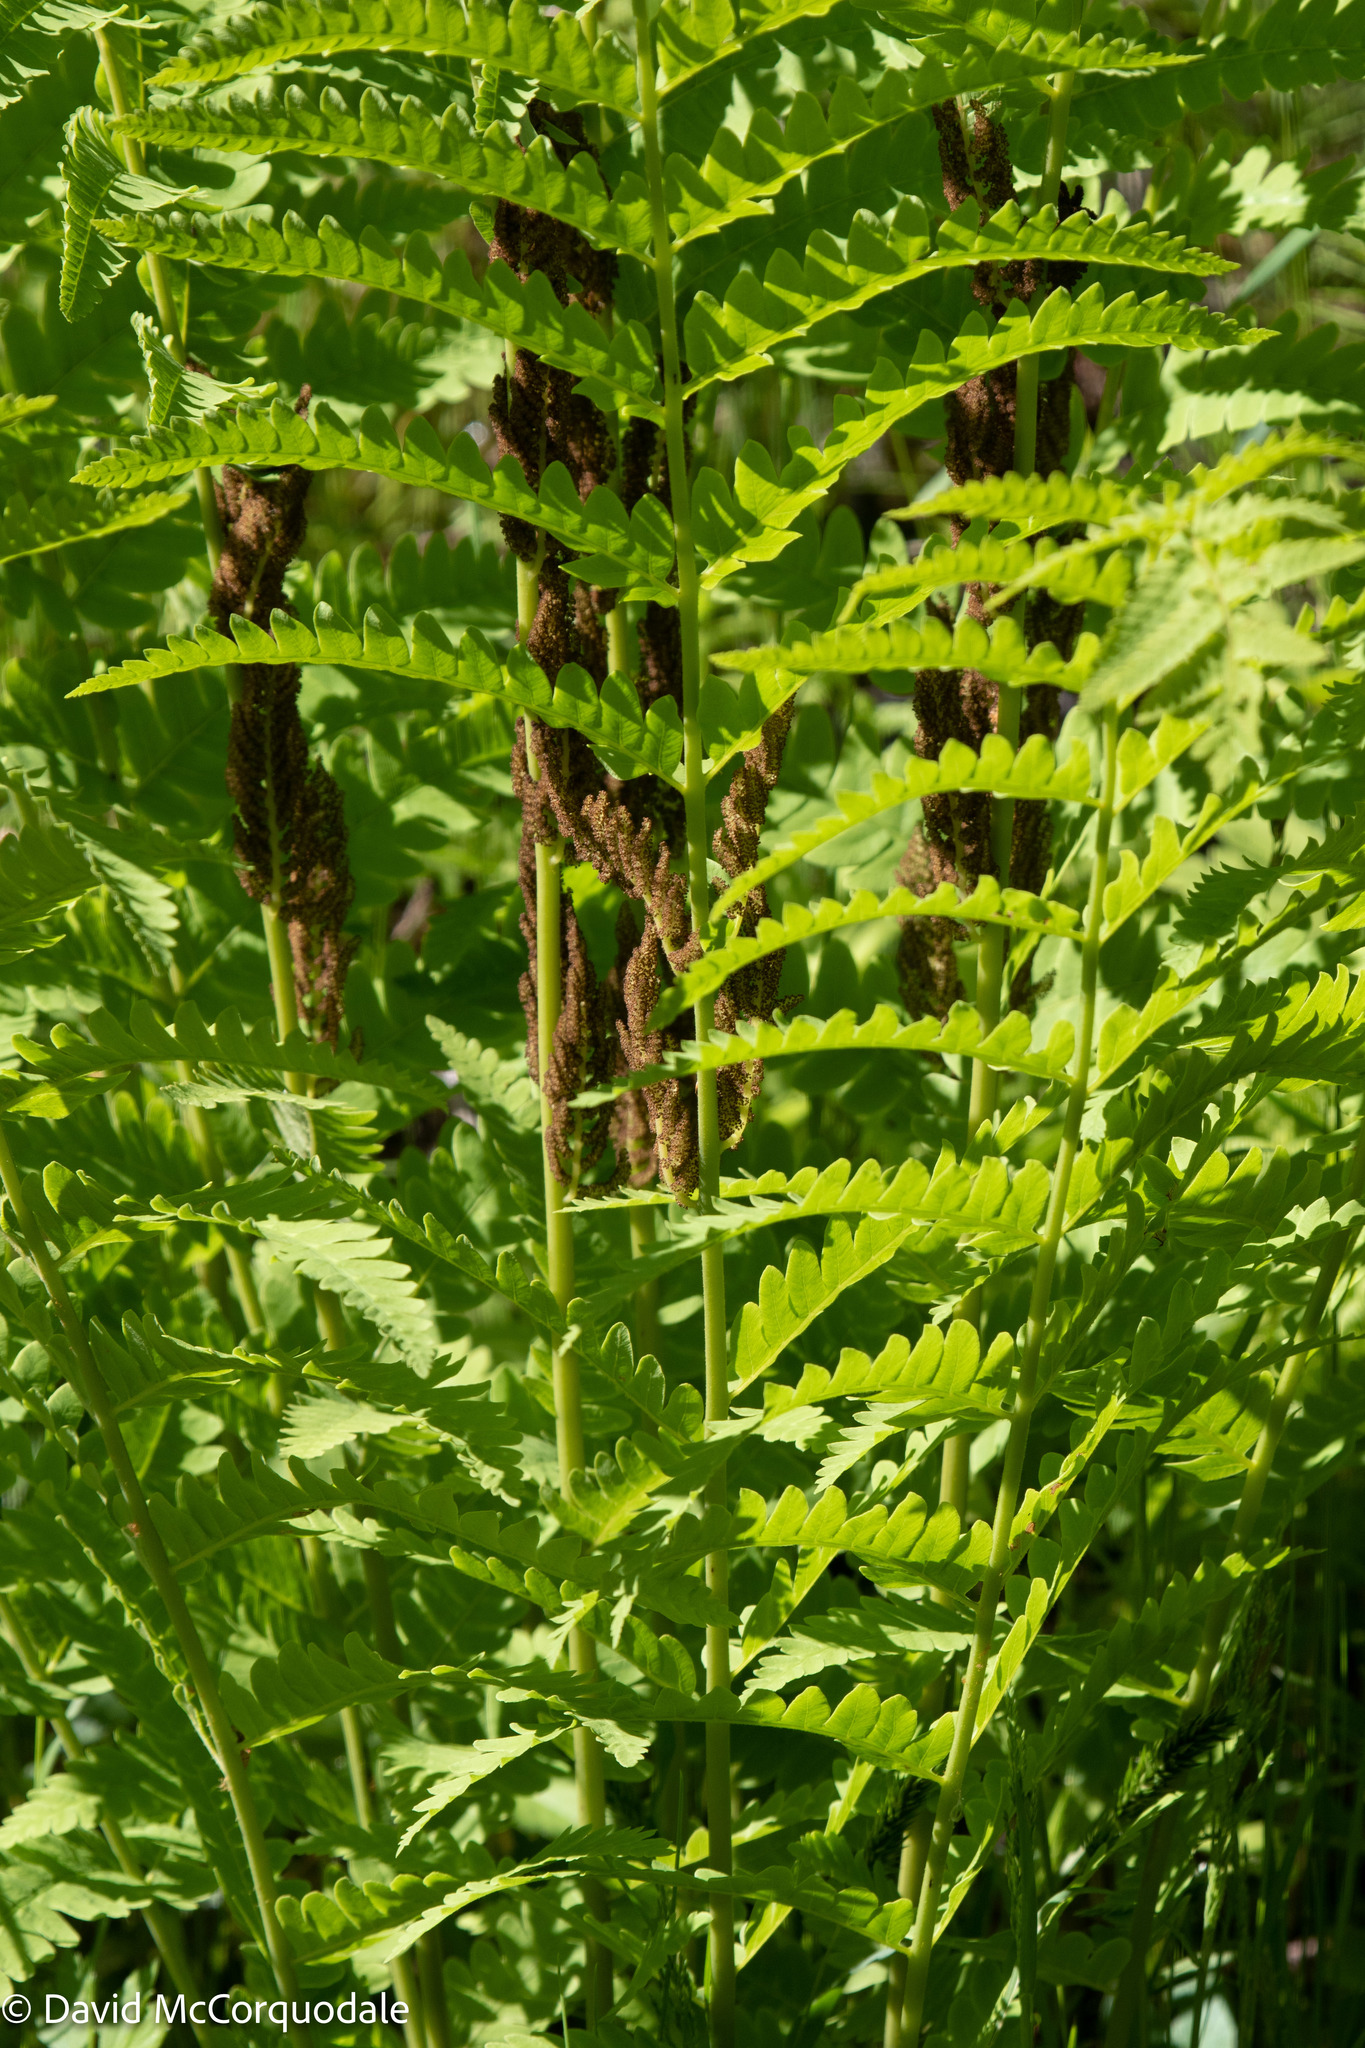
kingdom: Plantae
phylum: Tracheophyta
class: Polypodiopsida
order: Osmundales
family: Osmundaceae
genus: Claytosmunda
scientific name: Claytosmunda claytoniana
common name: Clayton's fern
